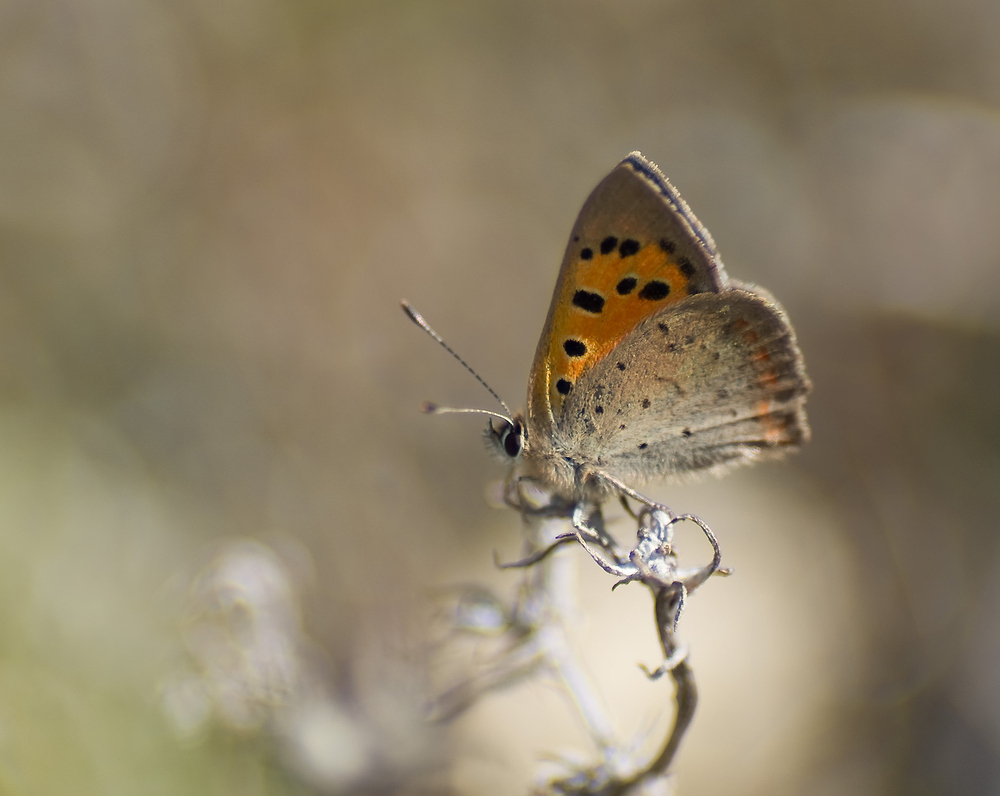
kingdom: Animalia
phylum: Arthropoda
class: Insecta
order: Lepidoptera
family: Lycaenidae
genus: Lycaena
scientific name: Lycaena phlaeas
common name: Small copper
